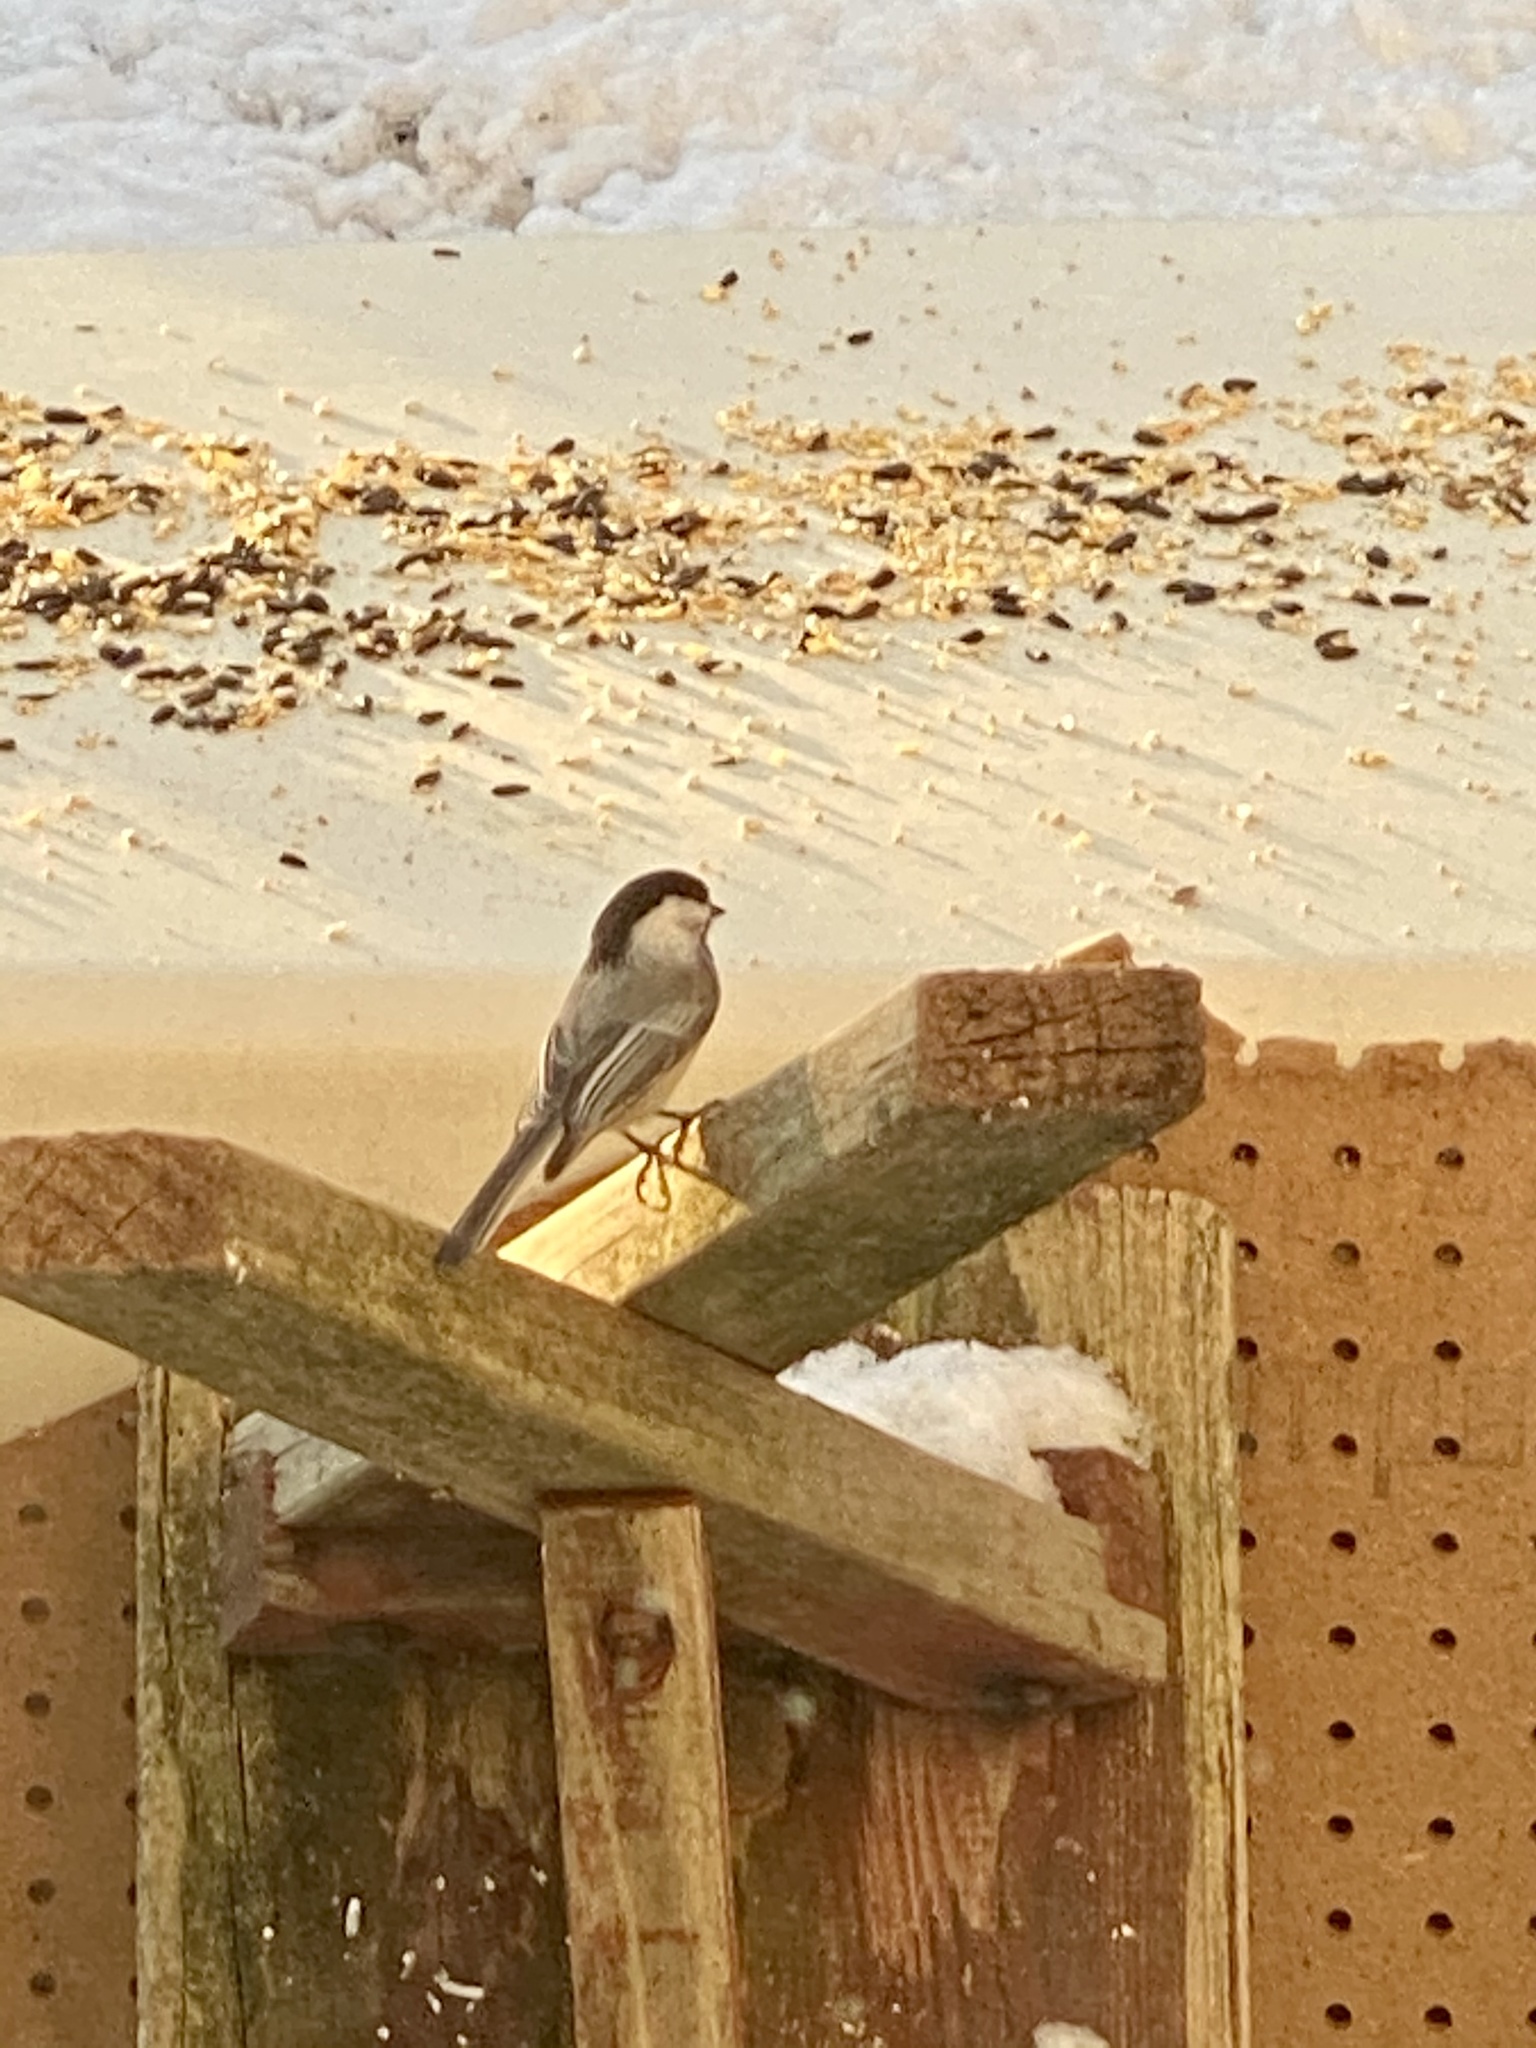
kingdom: Animalia
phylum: Chordata
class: Aves
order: Passeriformes
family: Paridae
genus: Poecile
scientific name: Poecile atricapillus
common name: Black-capped chickadee
